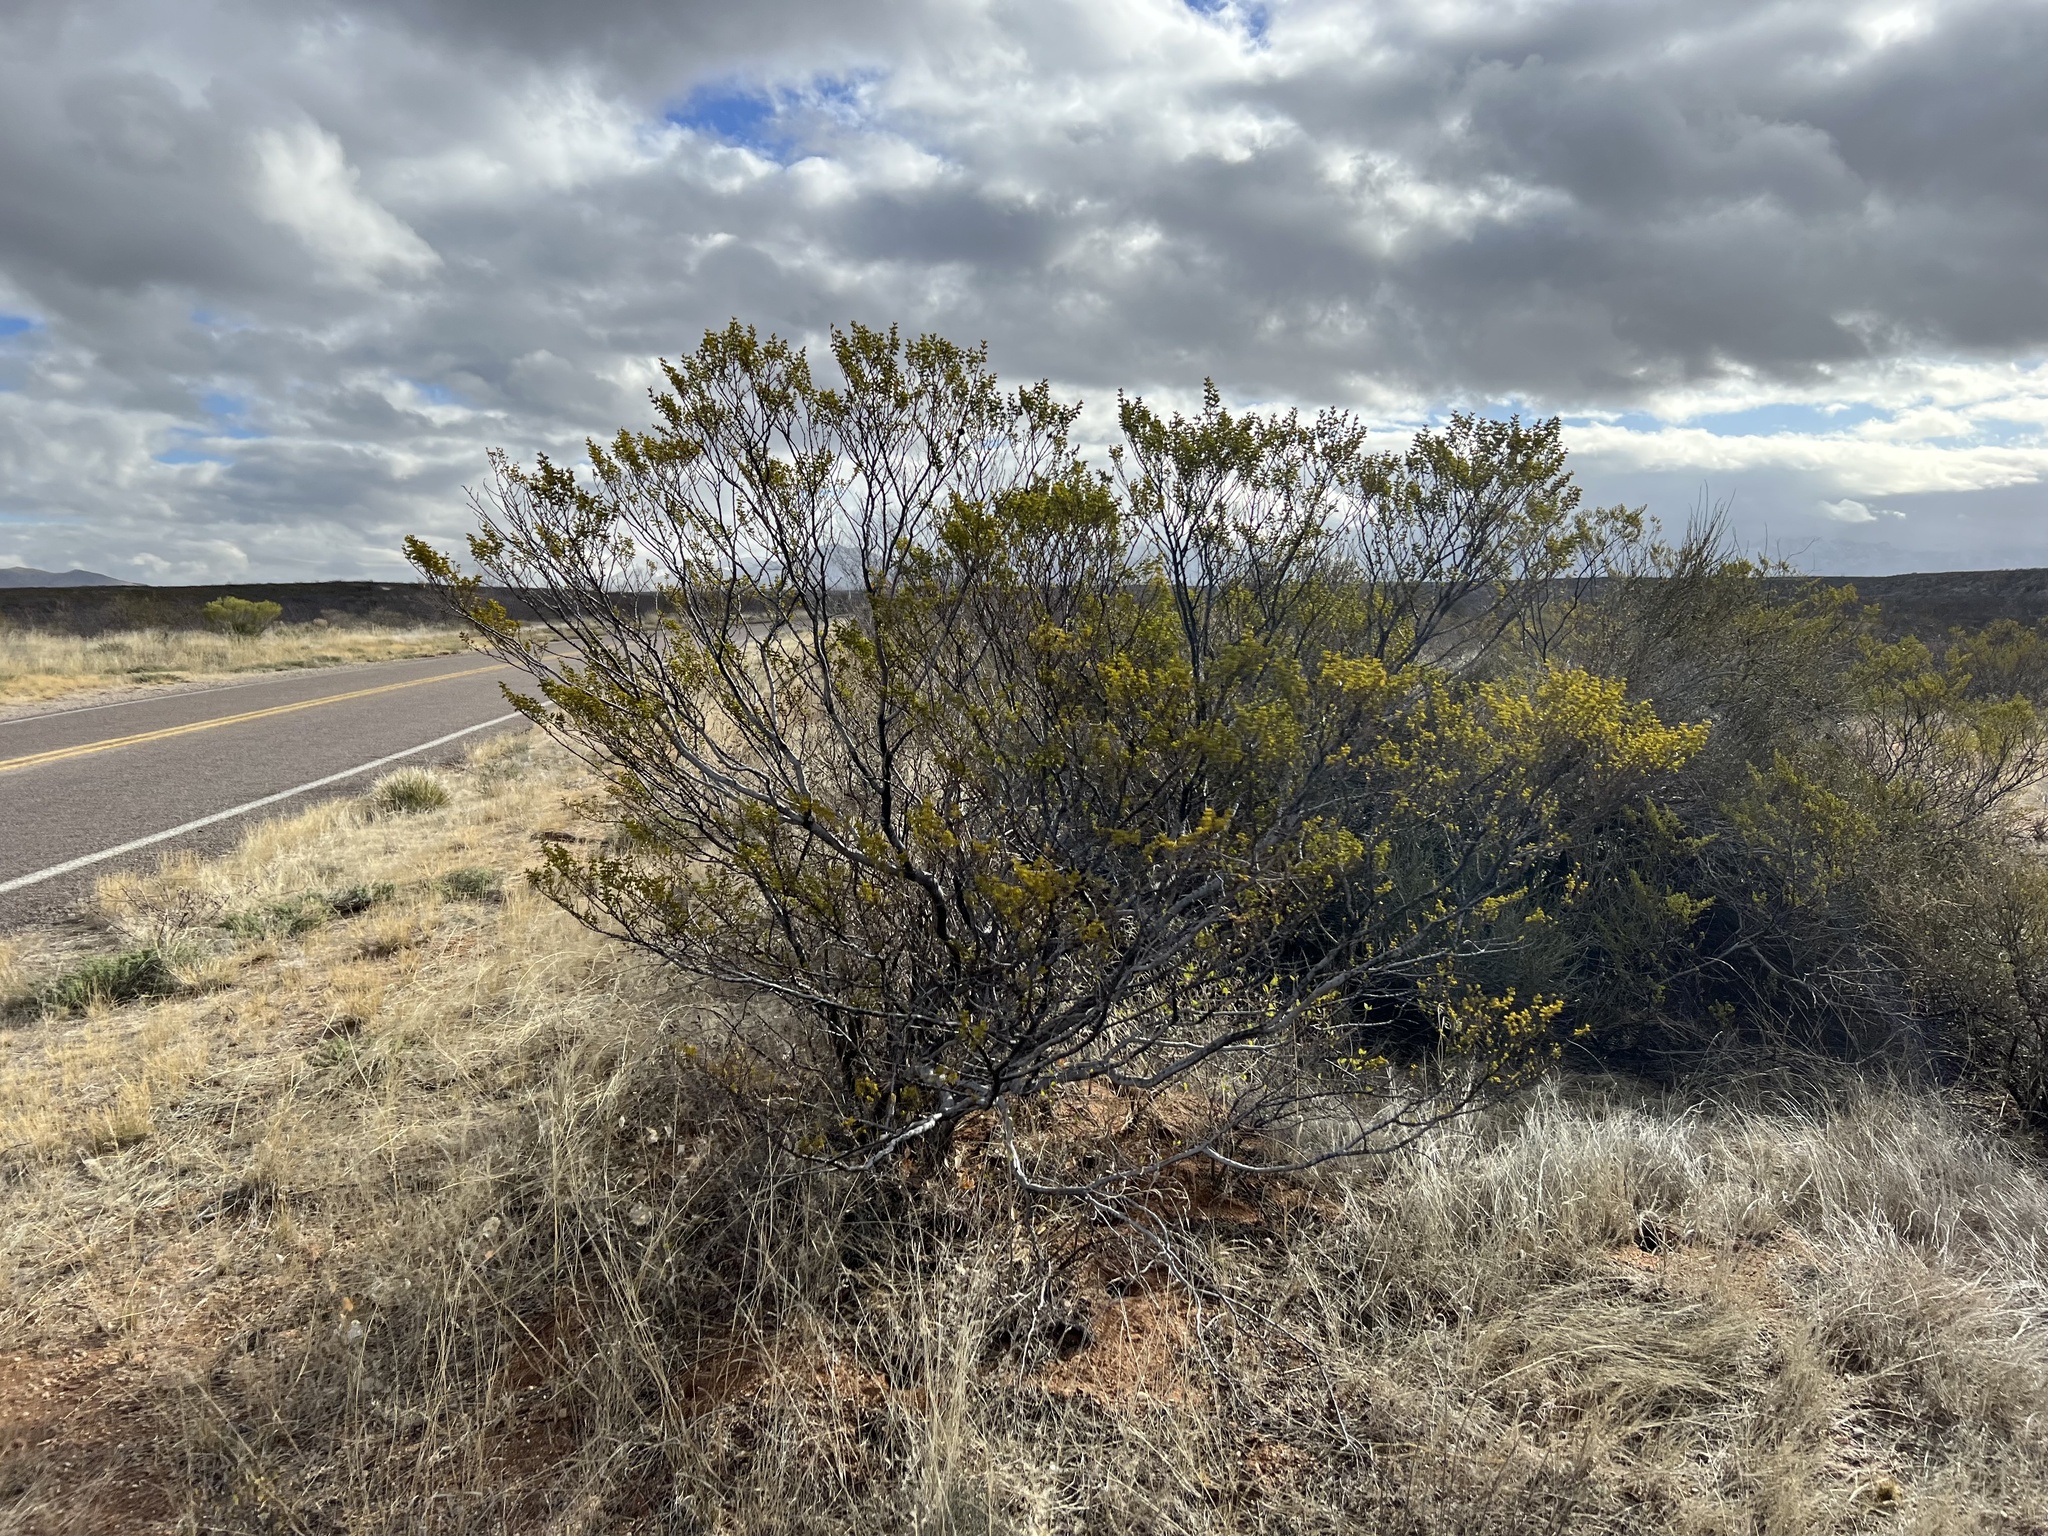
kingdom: Plantae
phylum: Tracheophyta
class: Magnoliopsida
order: Zygophyllales
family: Zygophyllaceae
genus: Larrea
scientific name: Larrea tridentata
